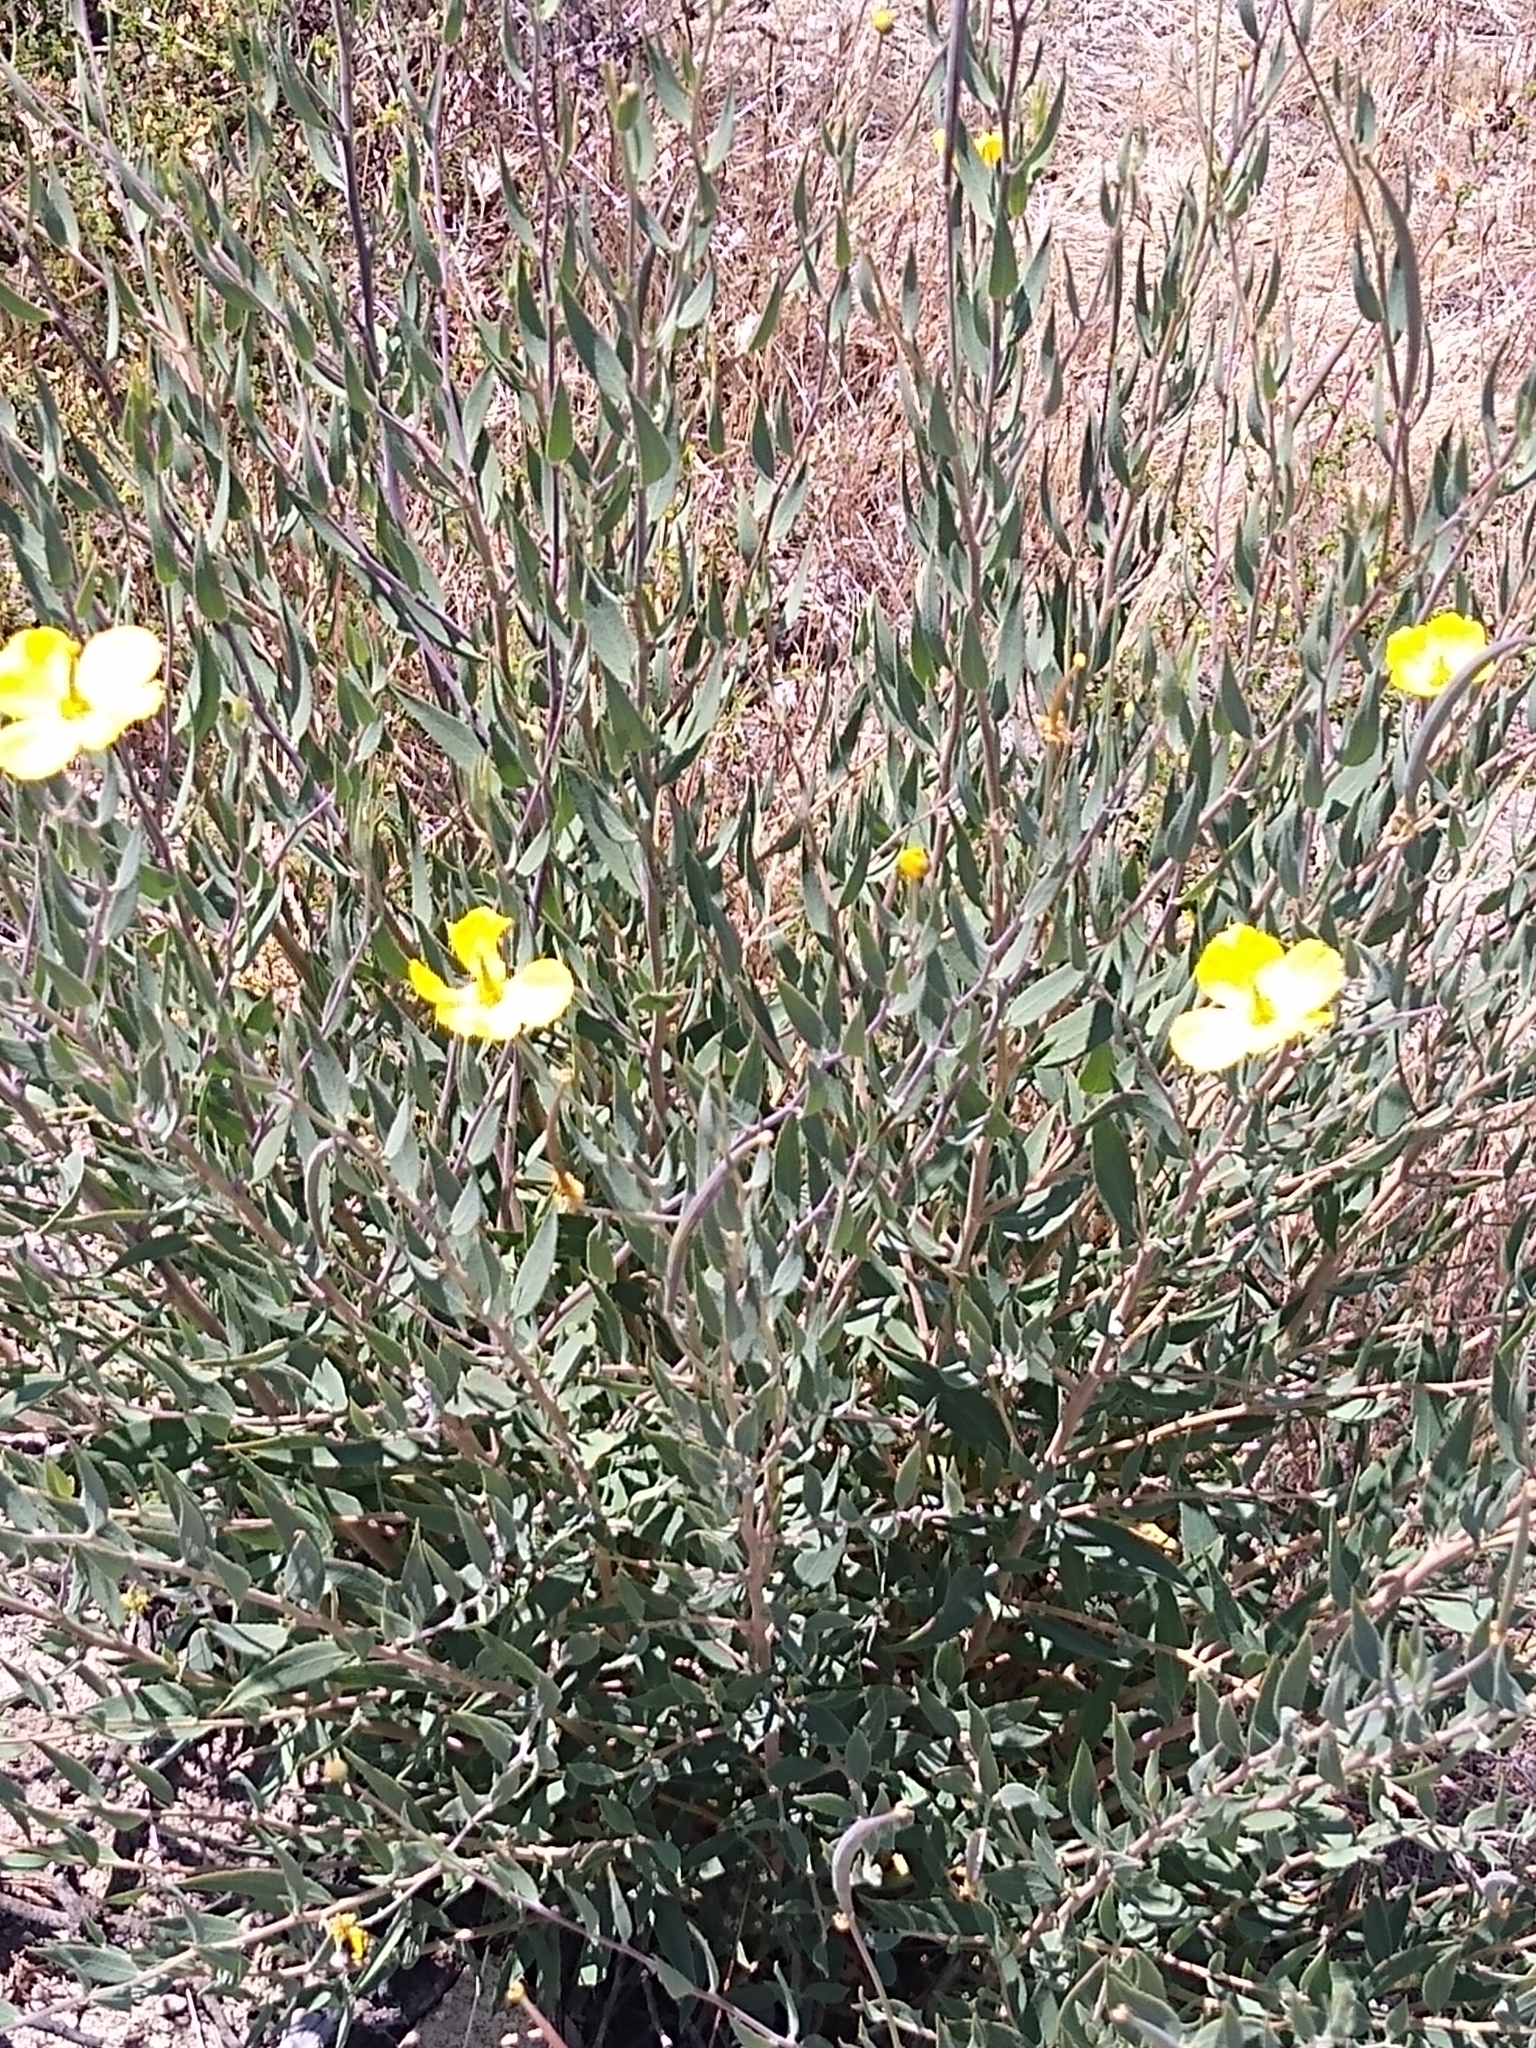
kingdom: Plantae
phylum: Tracheophyta
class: Magnoliopsida
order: Ranunculales
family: Papaveraceae
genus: Dendromecon
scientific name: Dendromecon rigida
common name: Tree poppy
